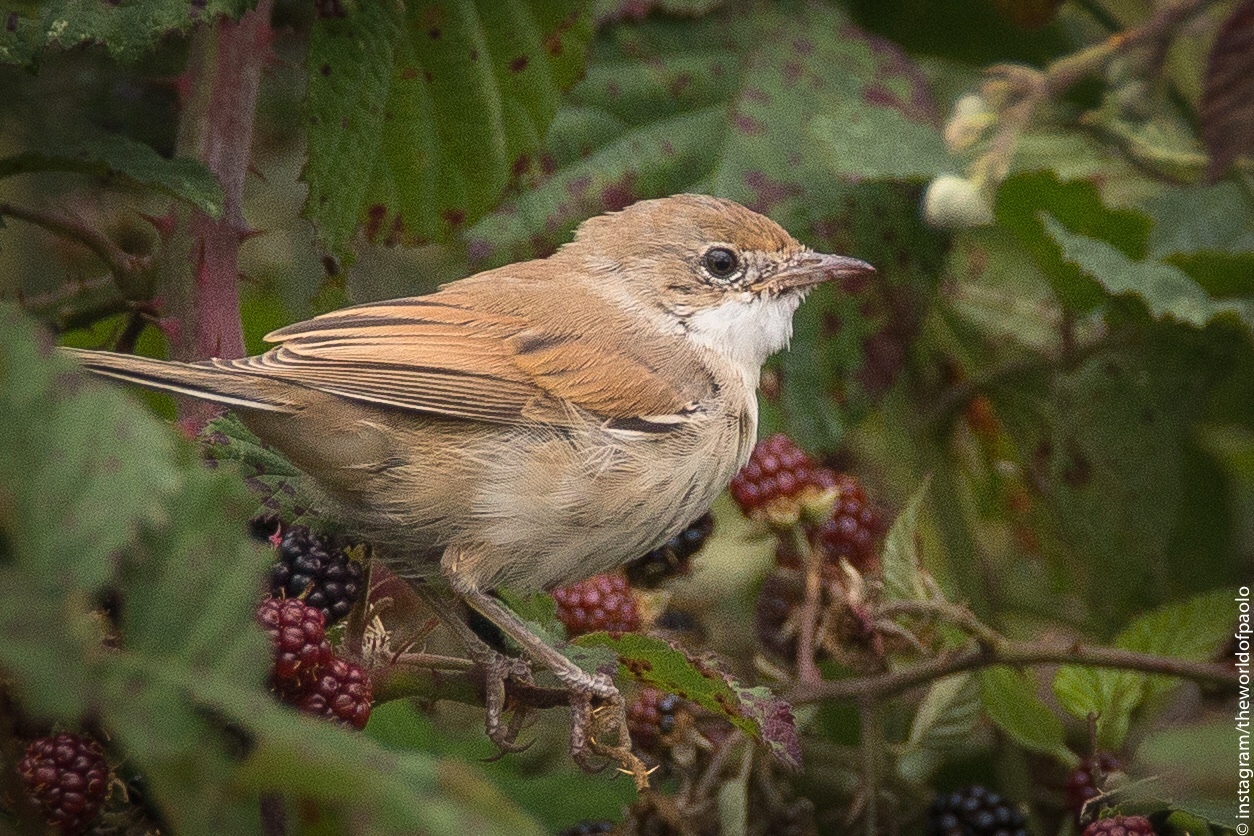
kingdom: Animalia
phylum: Chordata
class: Aves
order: Passeriformes
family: Sylviidae
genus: Sylvia
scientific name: Sylvia communis
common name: Common whitethroat
